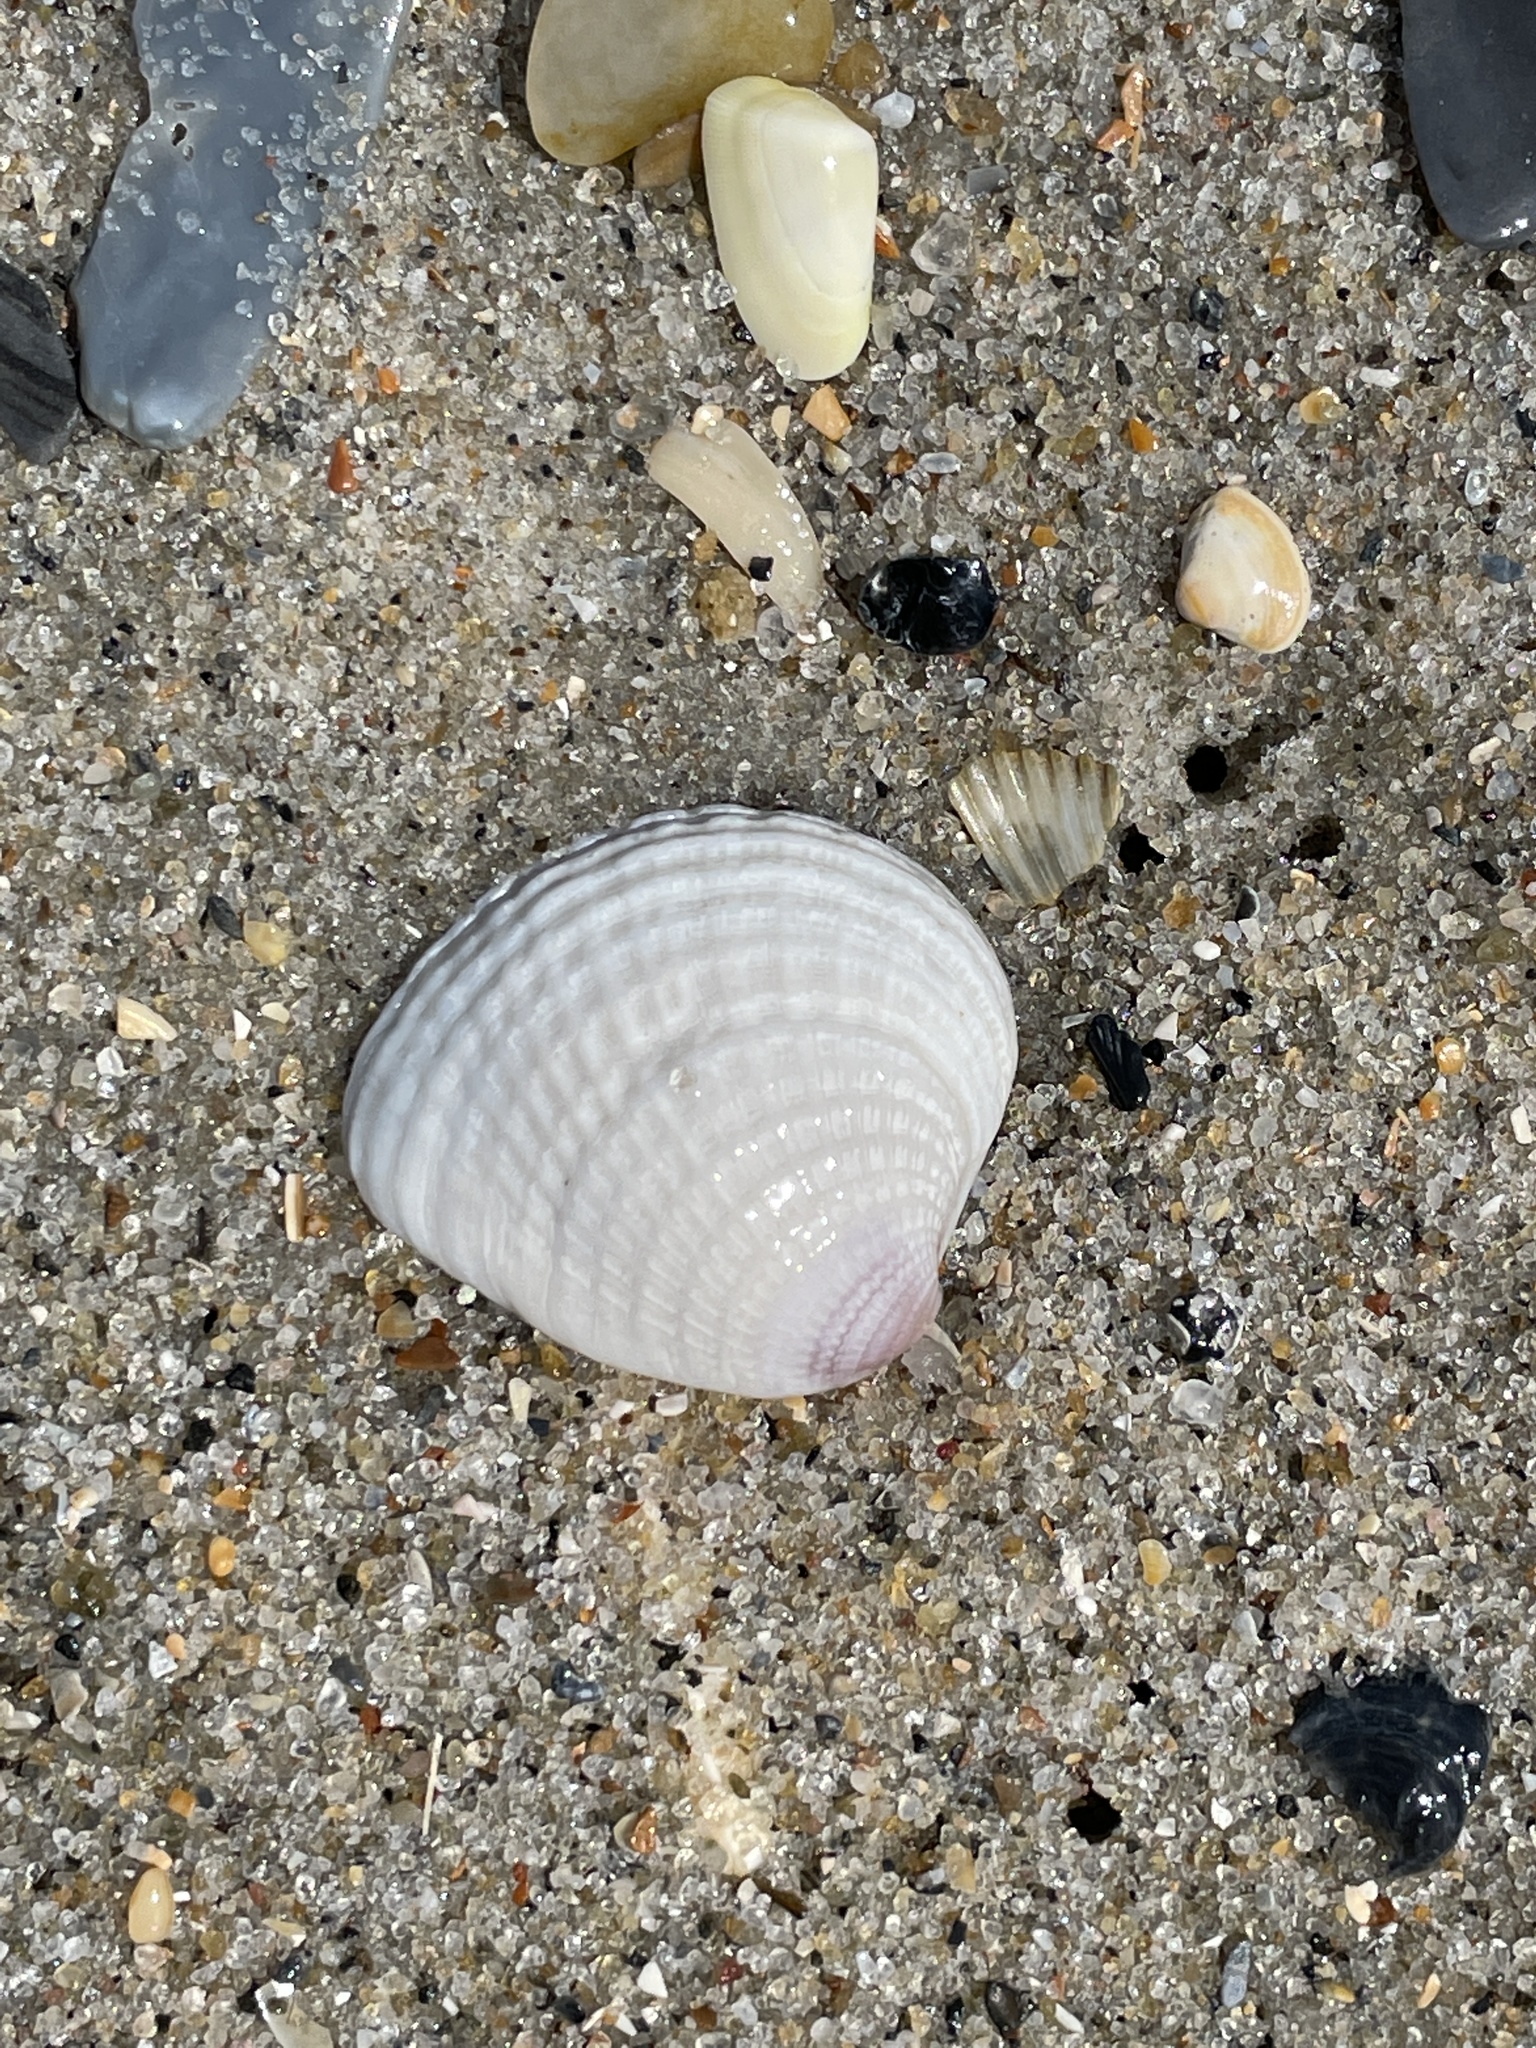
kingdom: Animalia
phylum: Mollusca
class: Bivalvia
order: Venerida
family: Veneridae
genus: Chione
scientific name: Chione elevata
